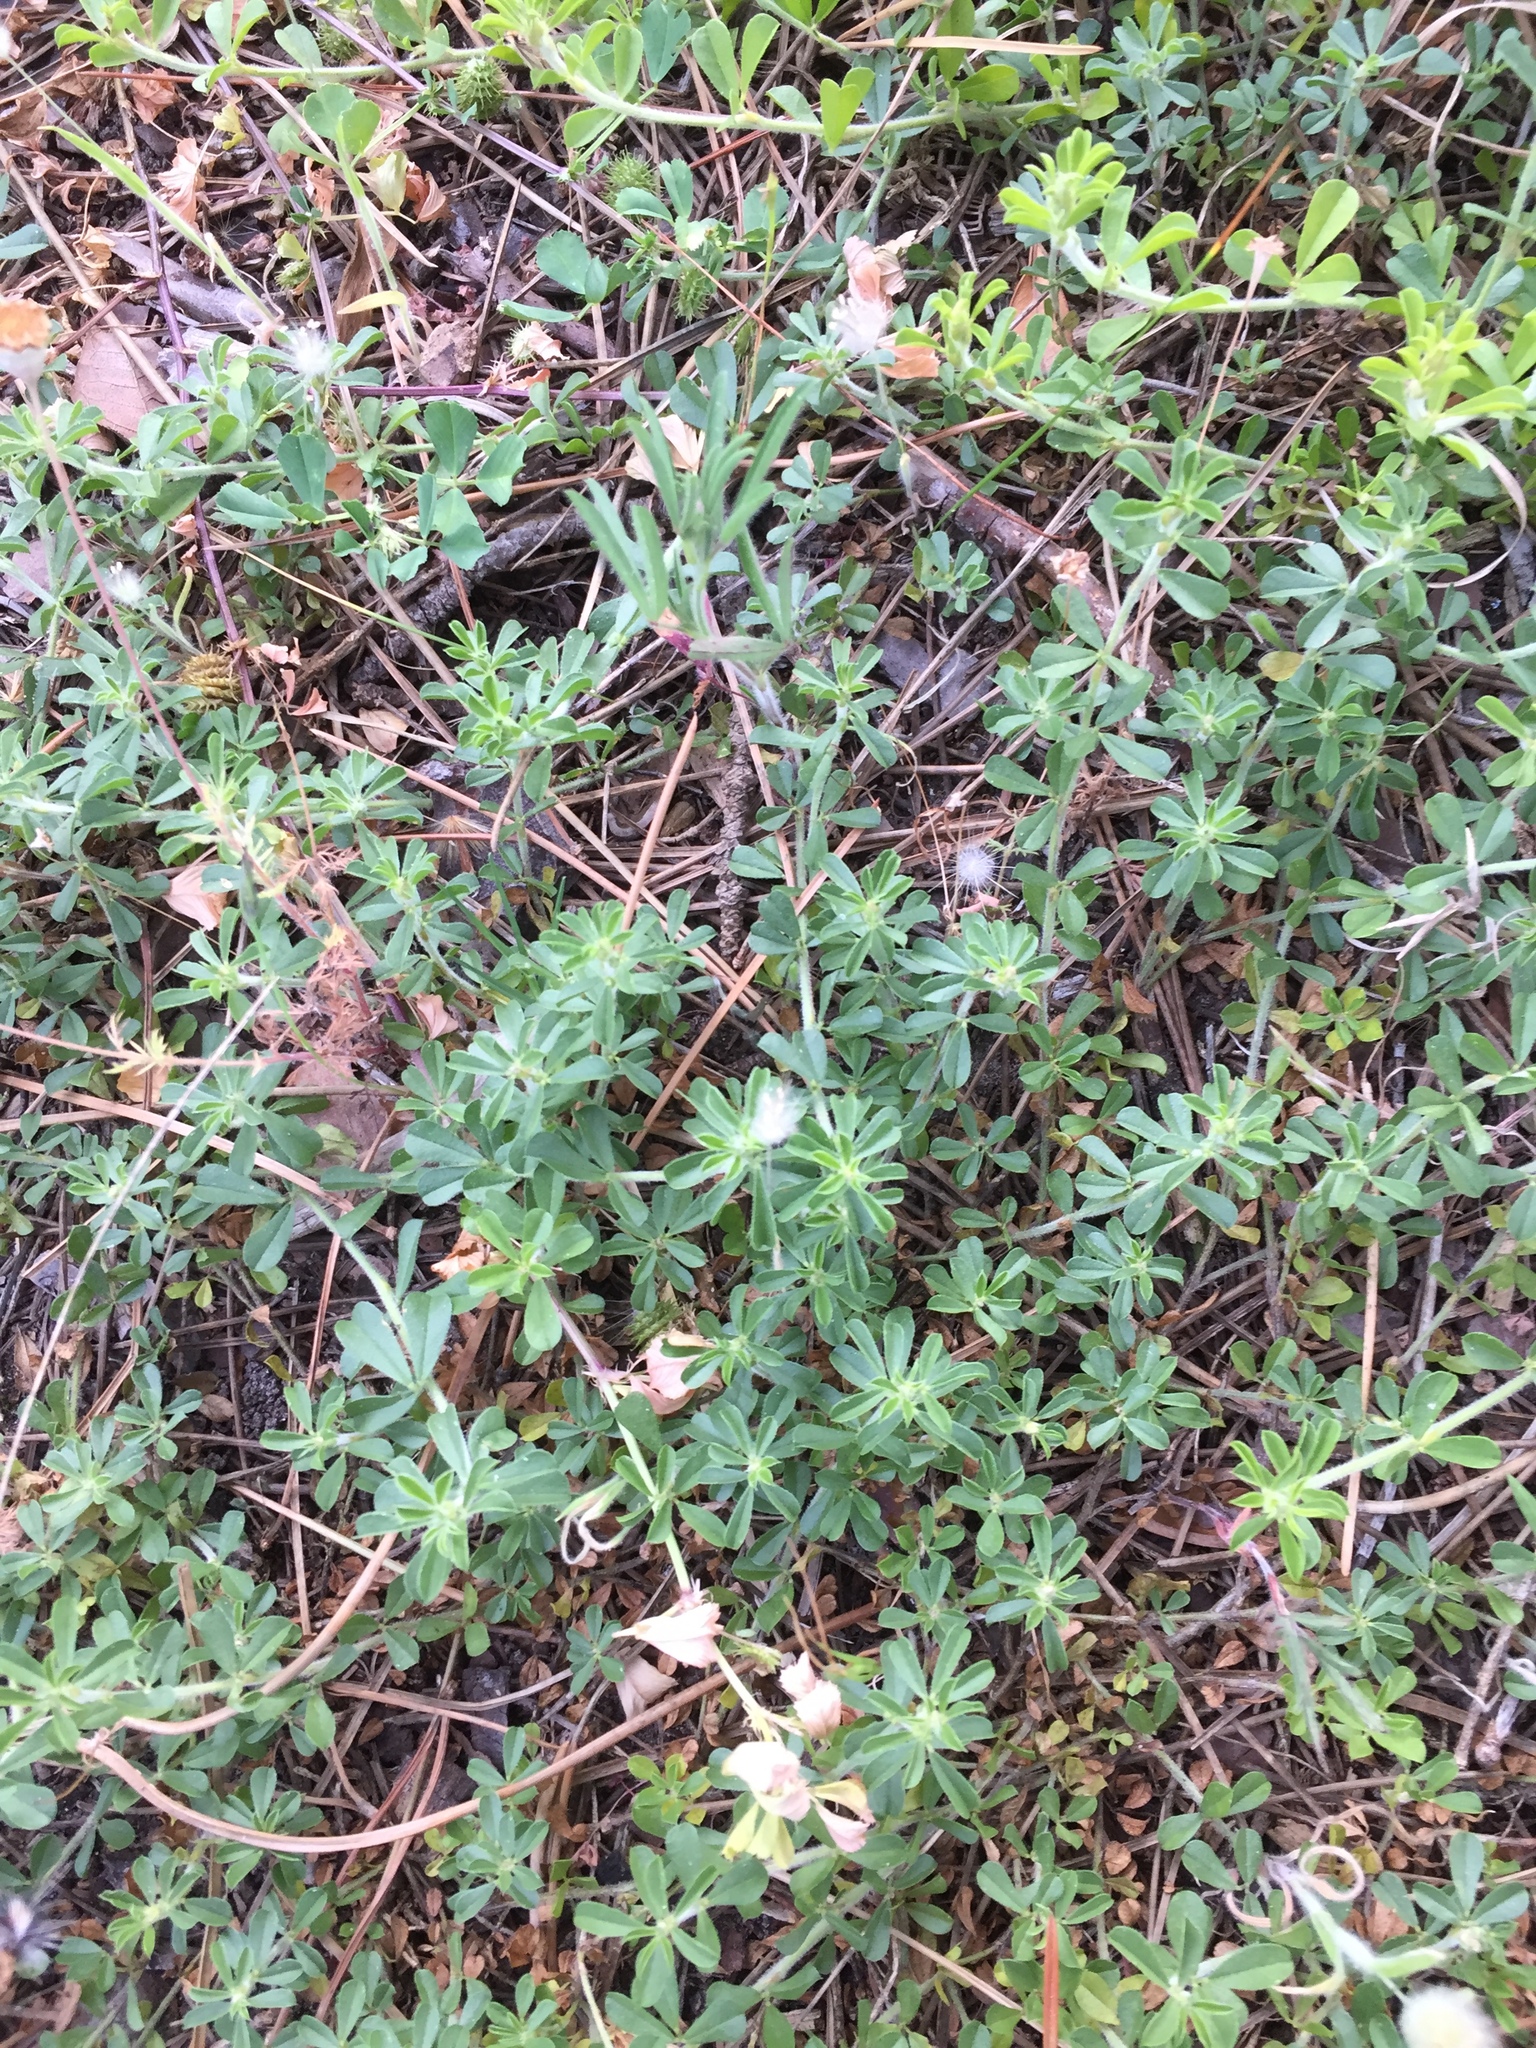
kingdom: Plantae
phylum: Tracheophyta
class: Magnoliopsida
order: Fabales
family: Fabaceae
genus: Psoralea
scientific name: Psoralea
